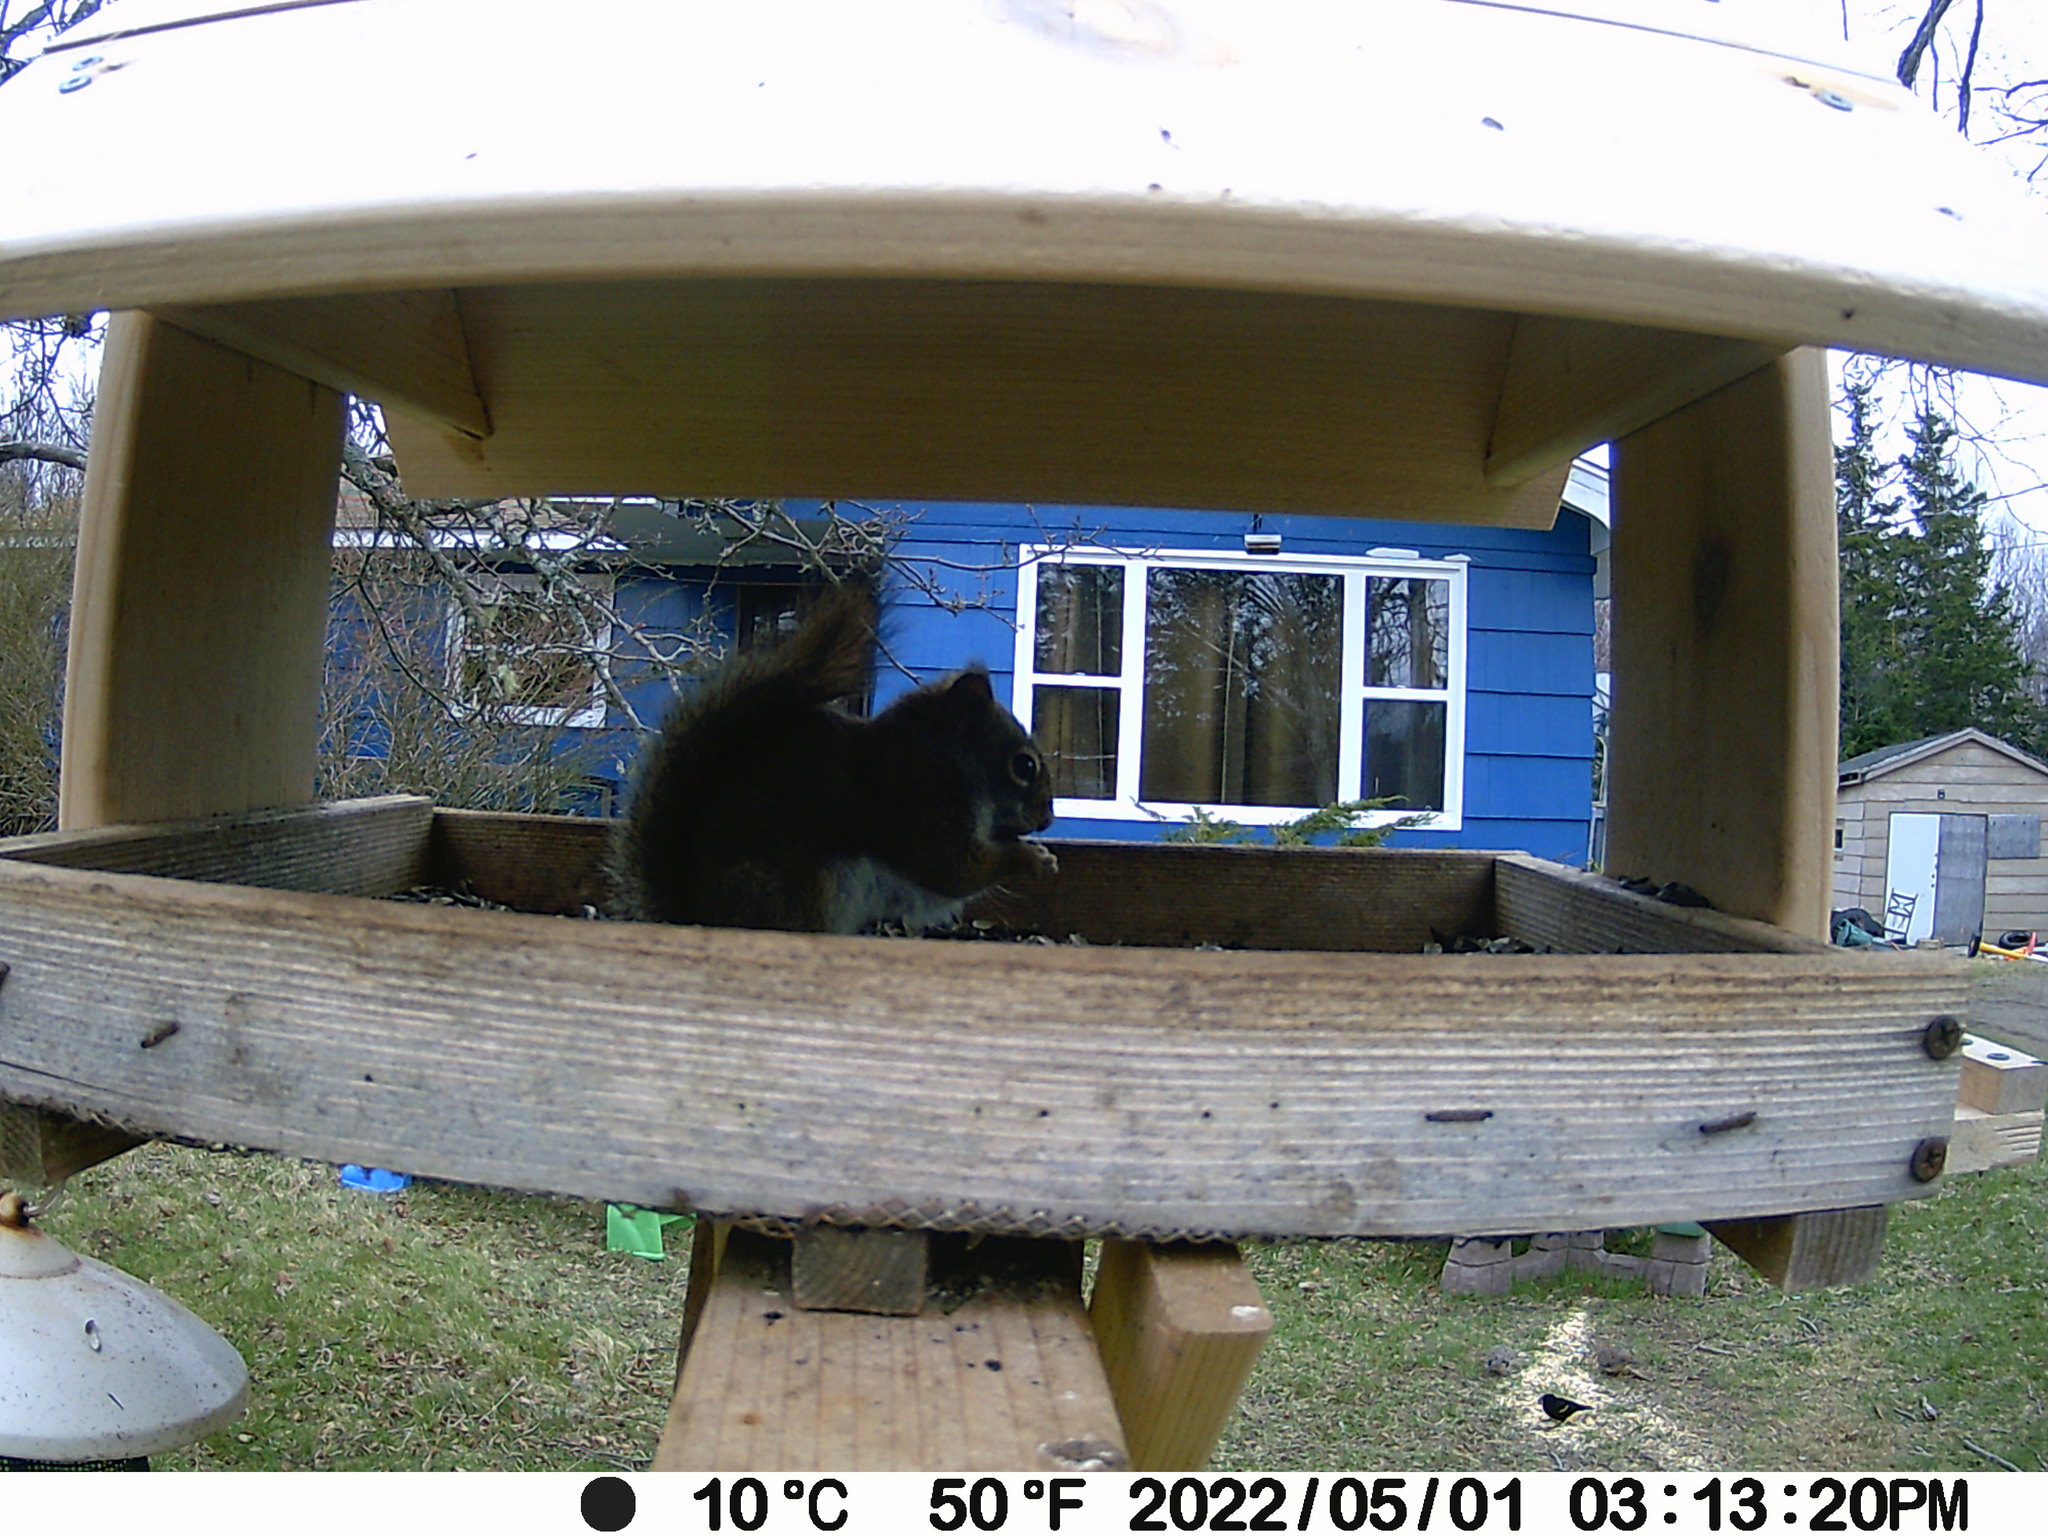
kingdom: Animalia
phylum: Chordata
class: Aves
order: Passeriformes
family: Icteridae
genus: Agelaius
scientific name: Agelaius phoeniceus
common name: Red-winged blackbird
